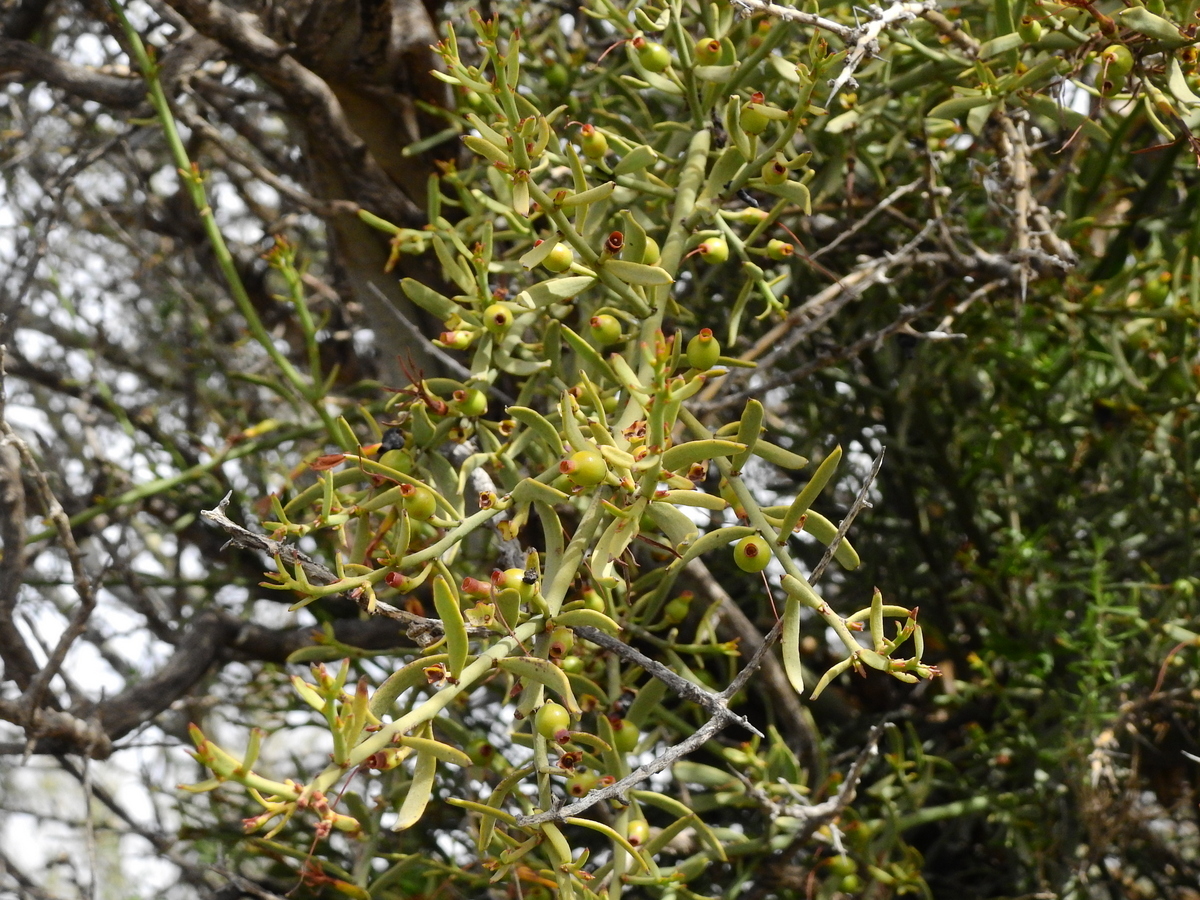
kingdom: Plantae
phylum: Tracheophyta
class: Magnoliopsida
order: Santalales
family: Loranthaceae
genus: Ligaria
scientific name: Ligaria cuneifolia
